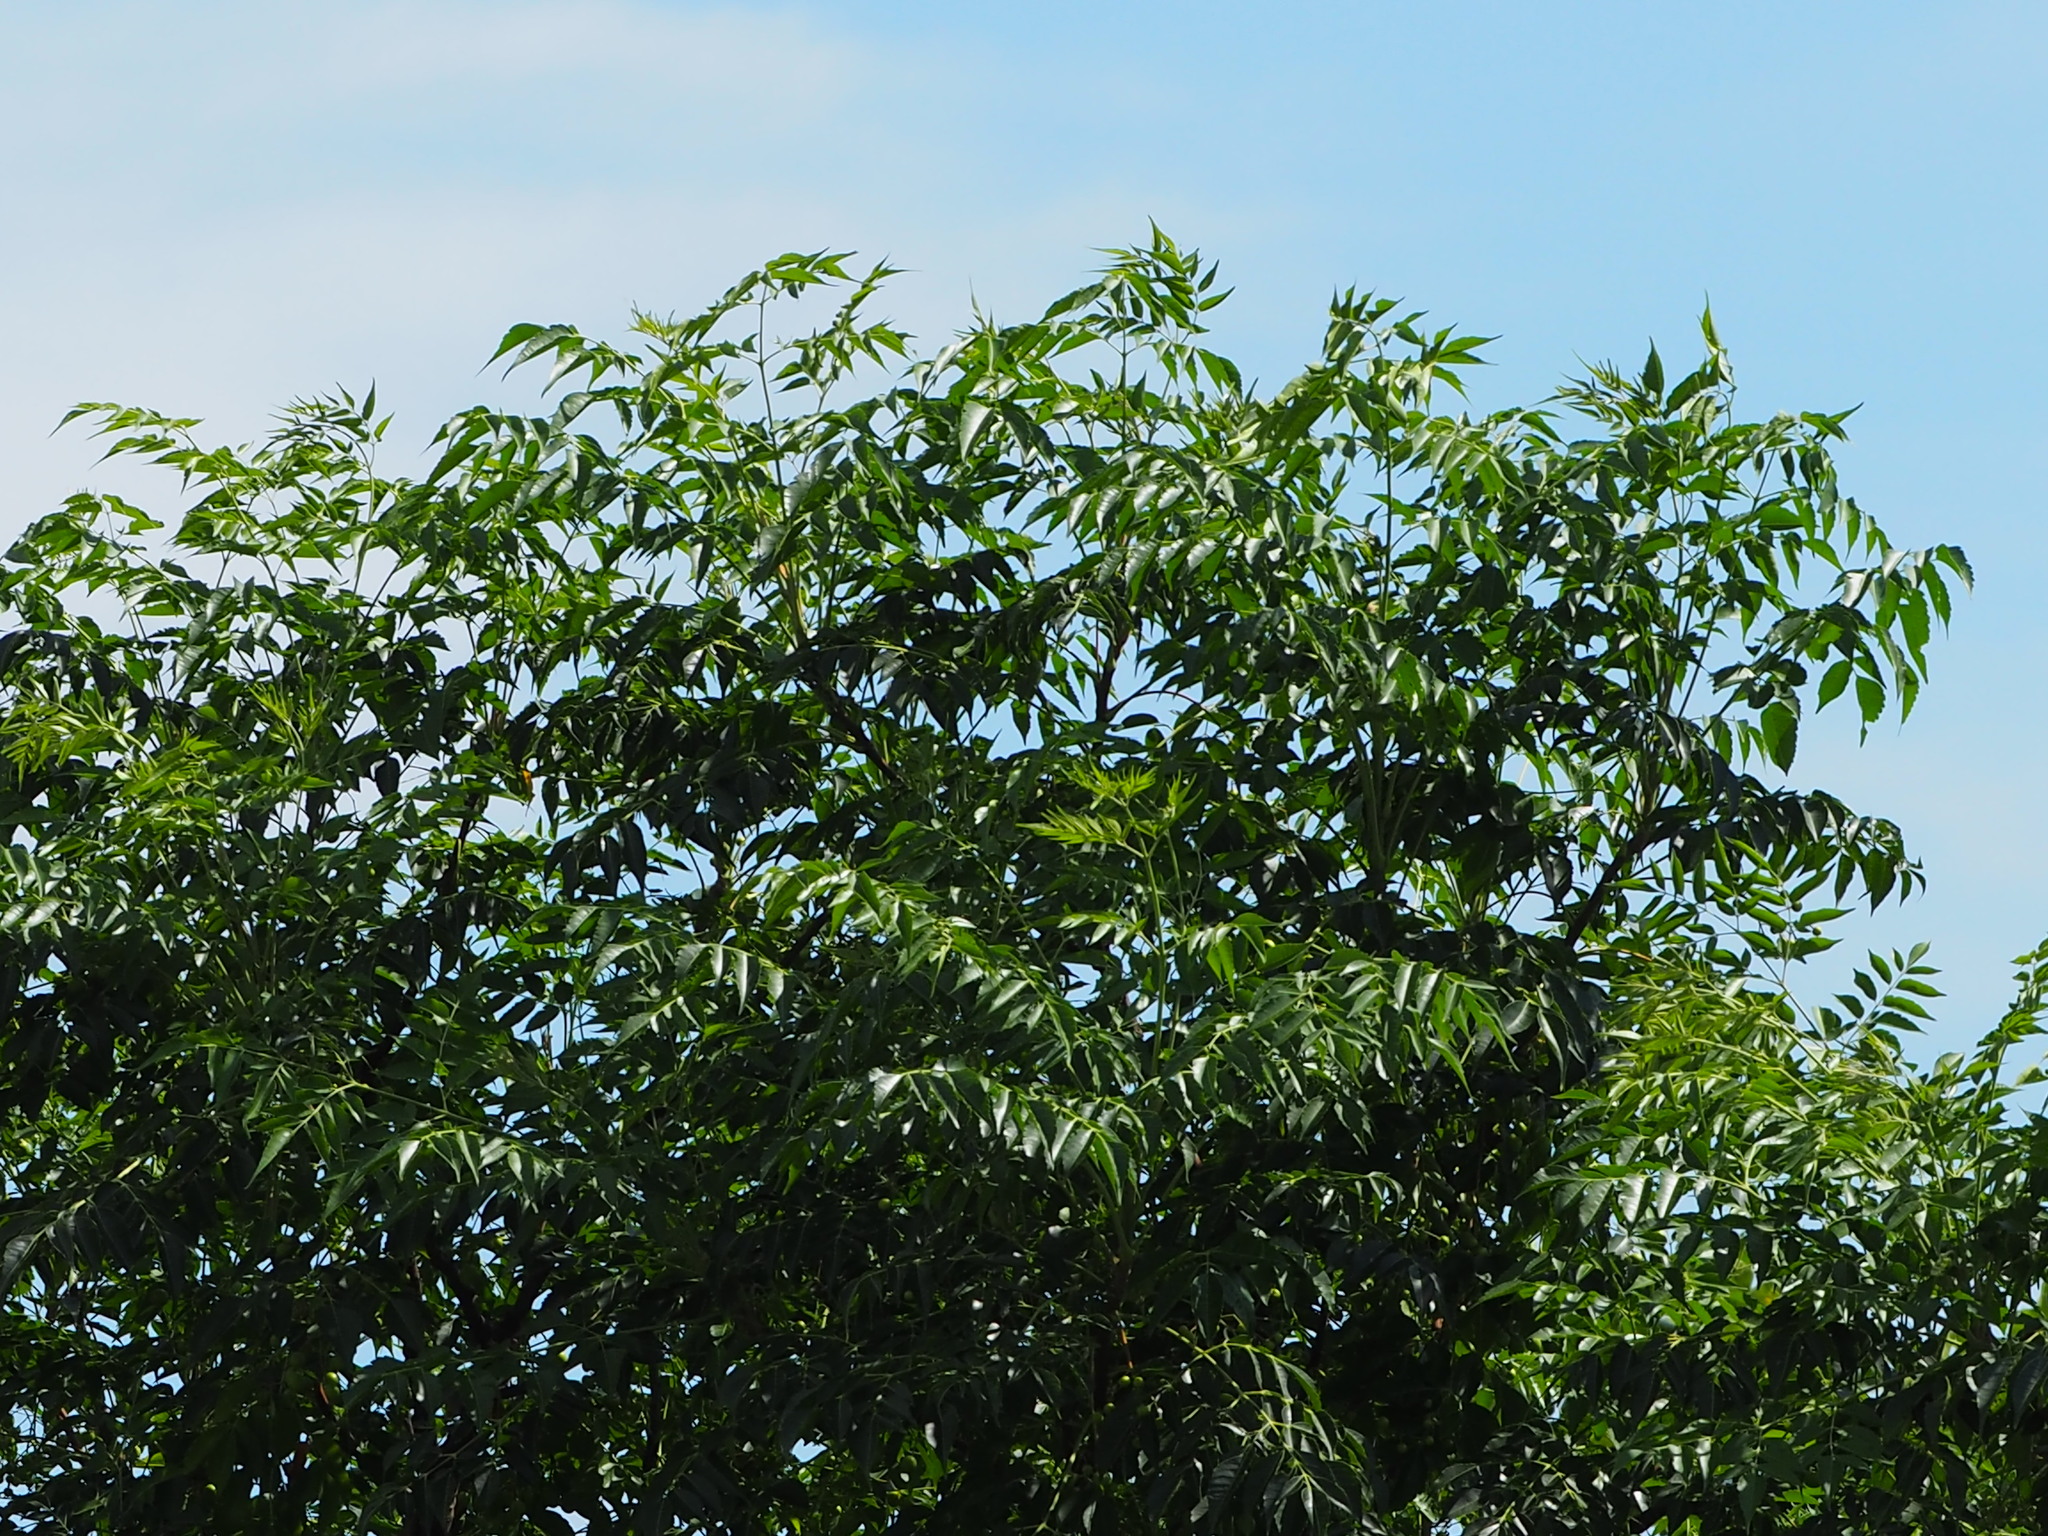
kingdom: Plantae
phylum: Tracheophyta
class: Magnoliopsida
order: Sapindales
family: Meliaceae
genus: Melia
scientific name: Melia azedarach
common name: Chinaberrytree
